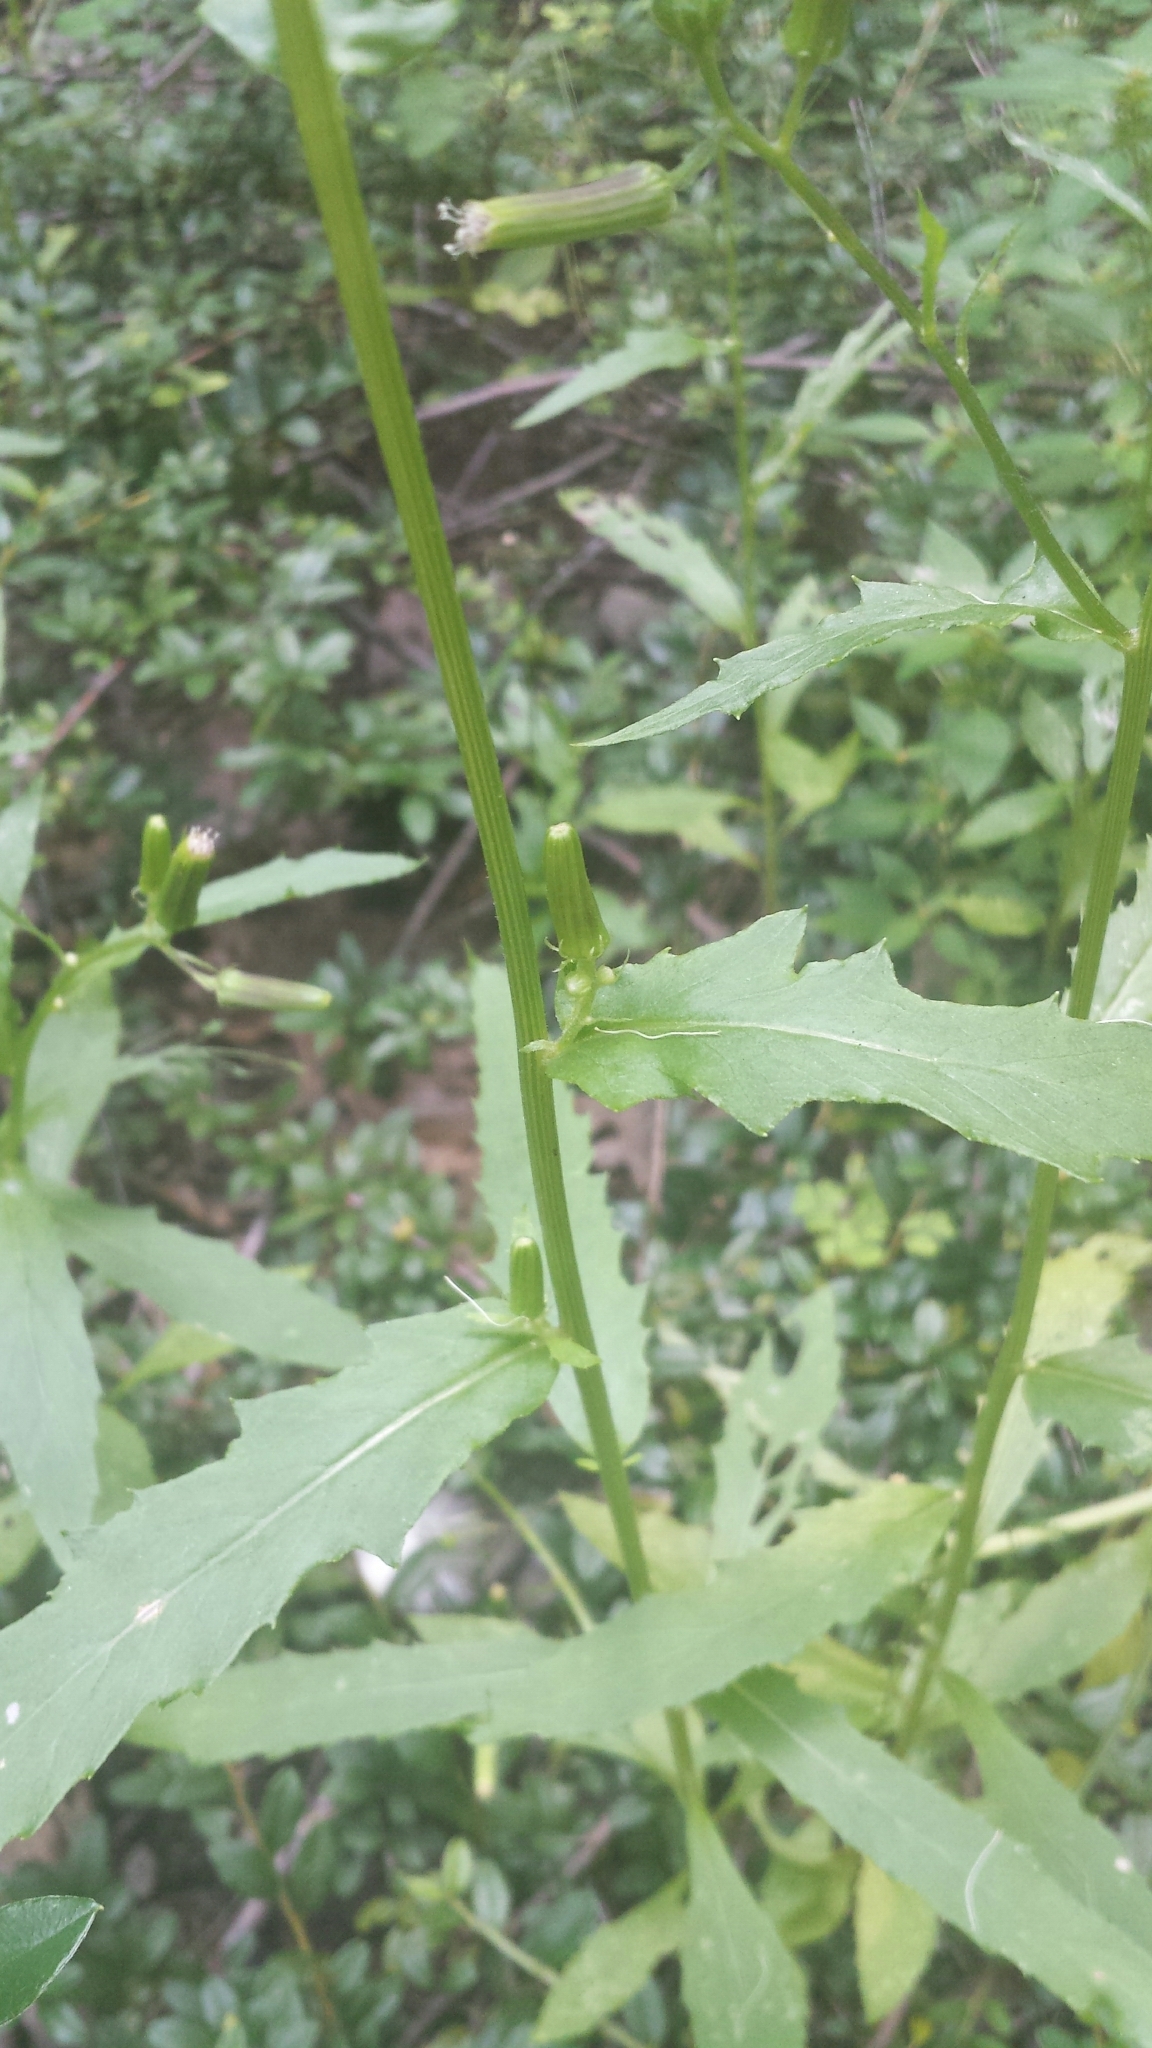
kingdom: Plantae
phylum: Tracheophyta
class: Magnoliopsida
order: Asterales
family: Asteraceae
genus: Erechtites
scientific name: Erechtites hieraciifolius
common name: American burnweed
